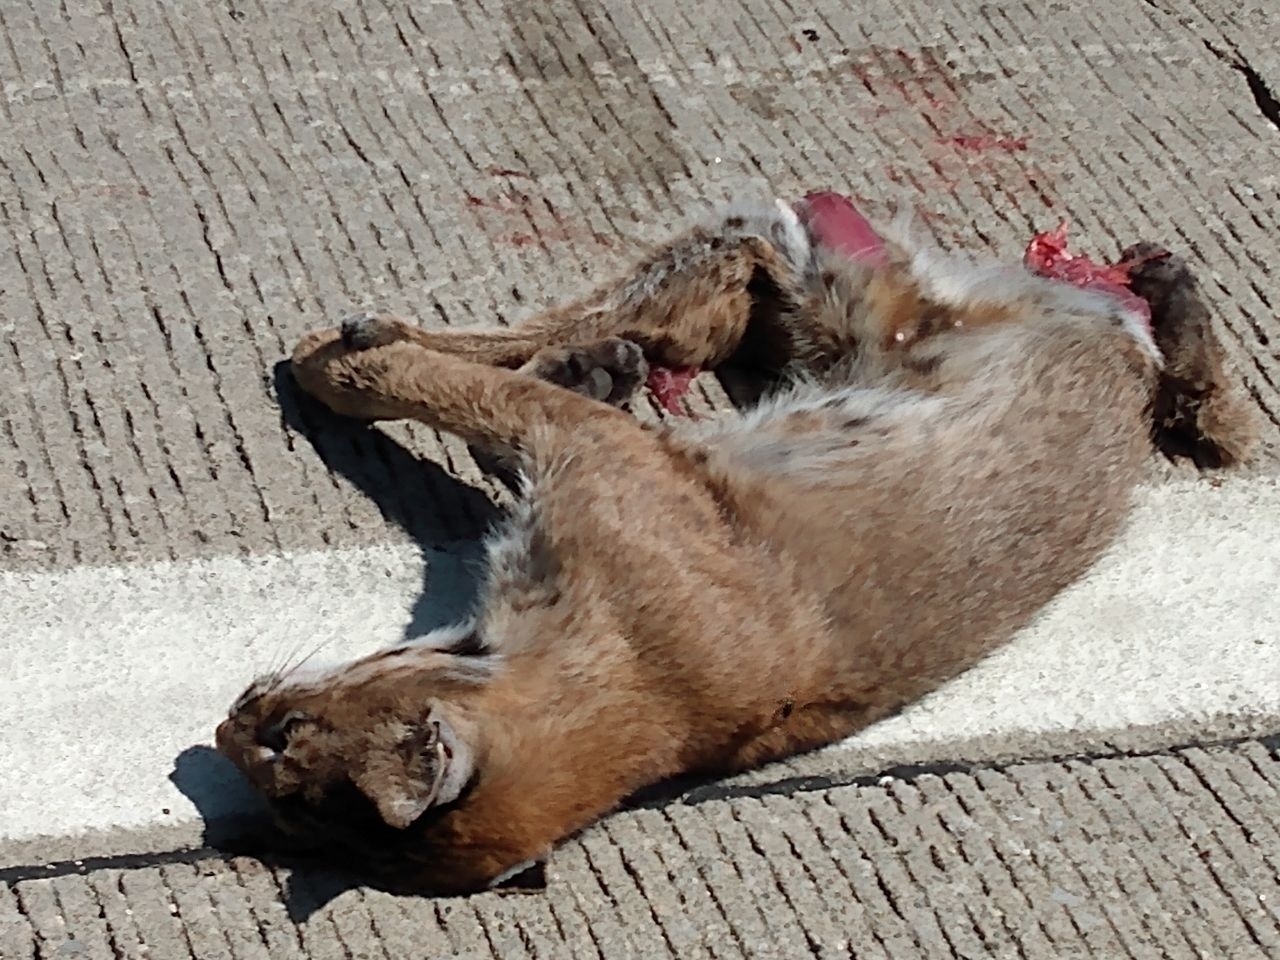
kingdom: Animalia
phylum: Chordata
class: Mammalia
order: Carnivora
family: Felidae
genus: Lynx
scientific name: Lynx rufus
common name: Bobcat
